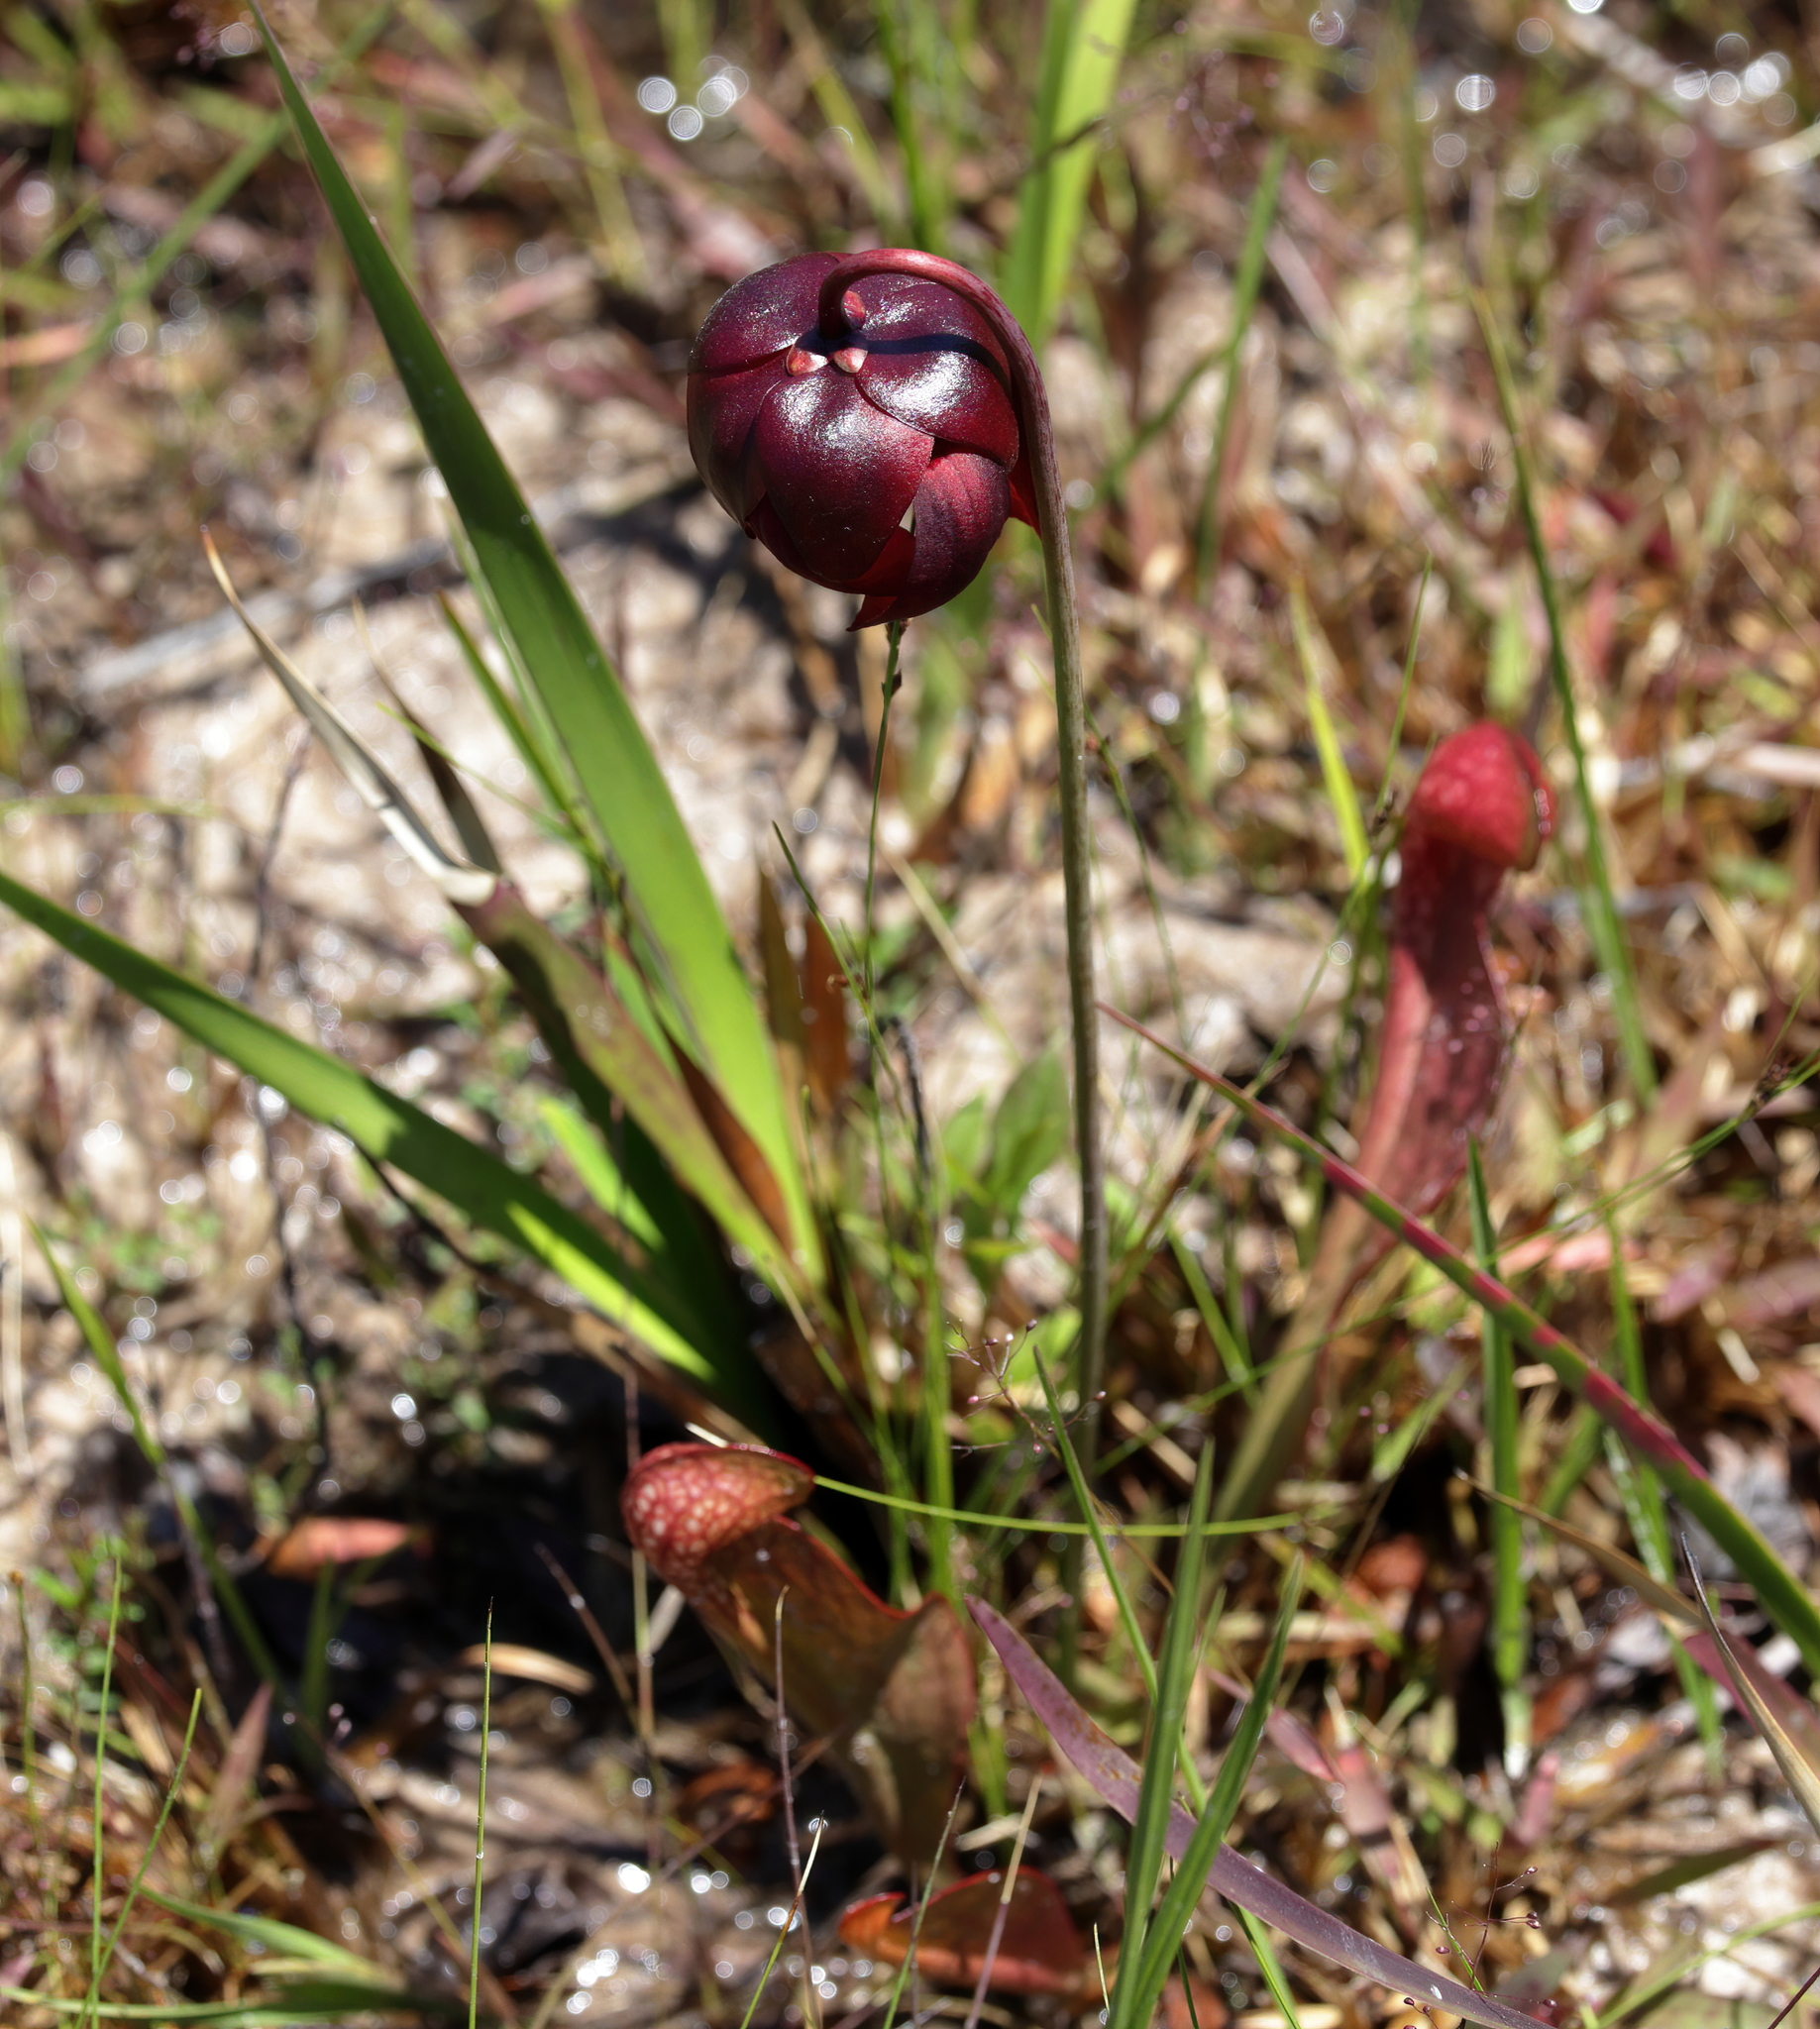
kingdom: Plantae
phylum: Tracheophyta
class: Magnoliopsida
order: Ericales
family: Sarraceniaceae
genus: Sarracenia
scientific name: Sarracenia psittacina
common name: Parrot pitcherplant
